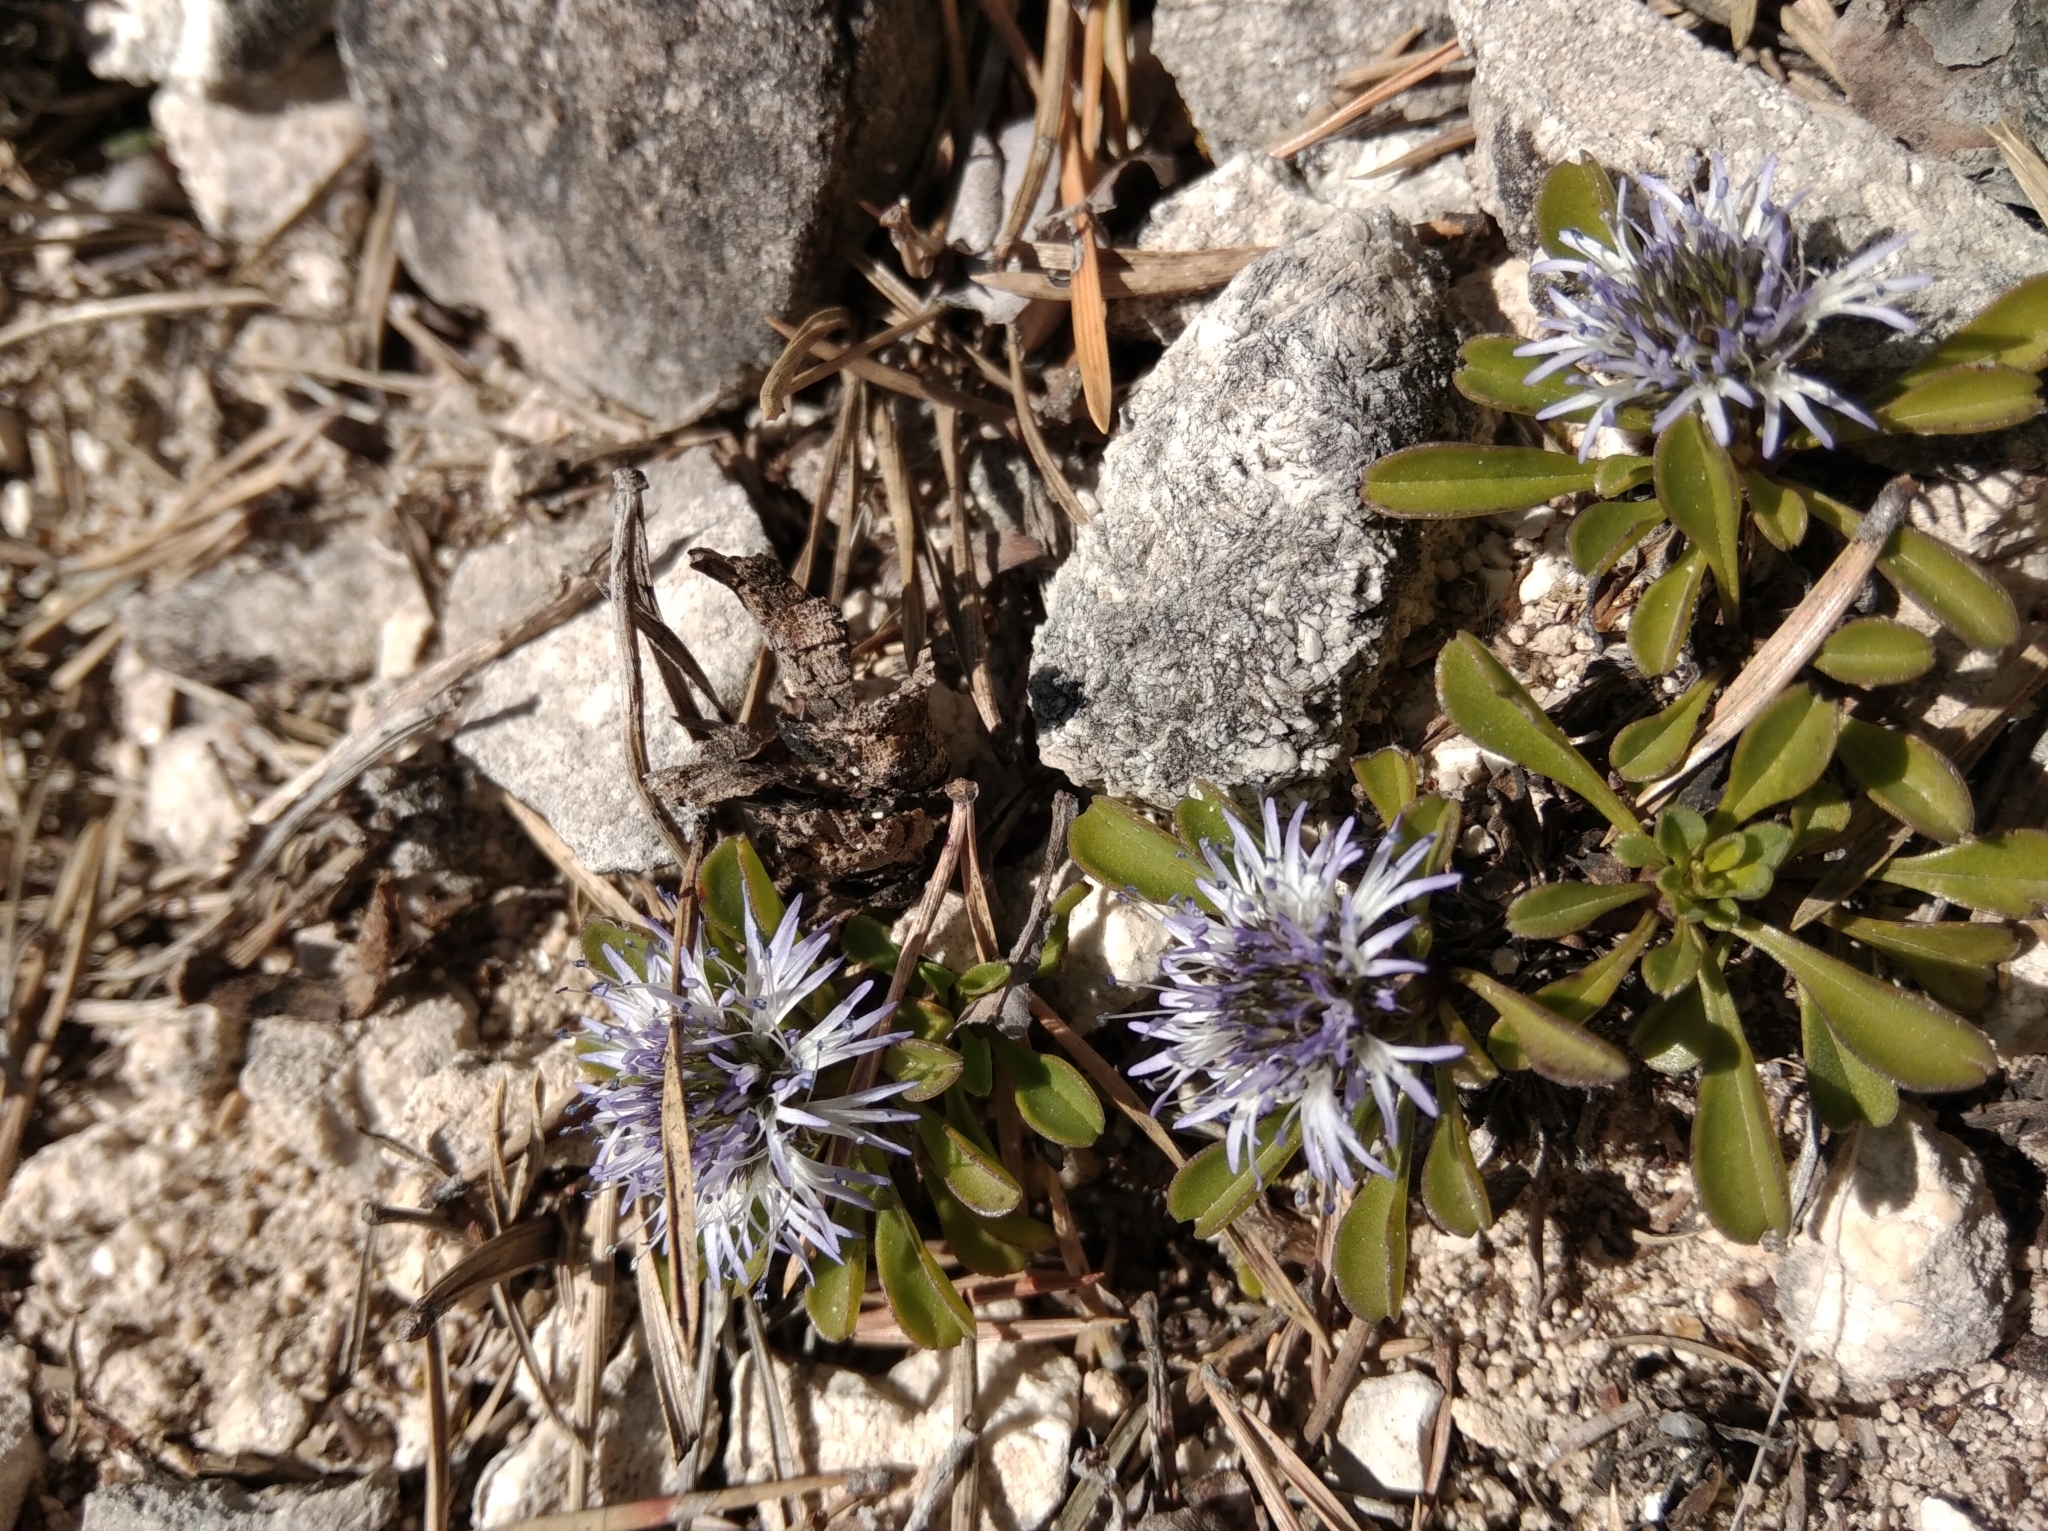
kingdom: Plantae
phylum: Tracheophyta
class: Magnoliopsida
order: Lamiales
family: Plantaginaceae
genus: Globularia
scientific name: Globularia cordifolia
